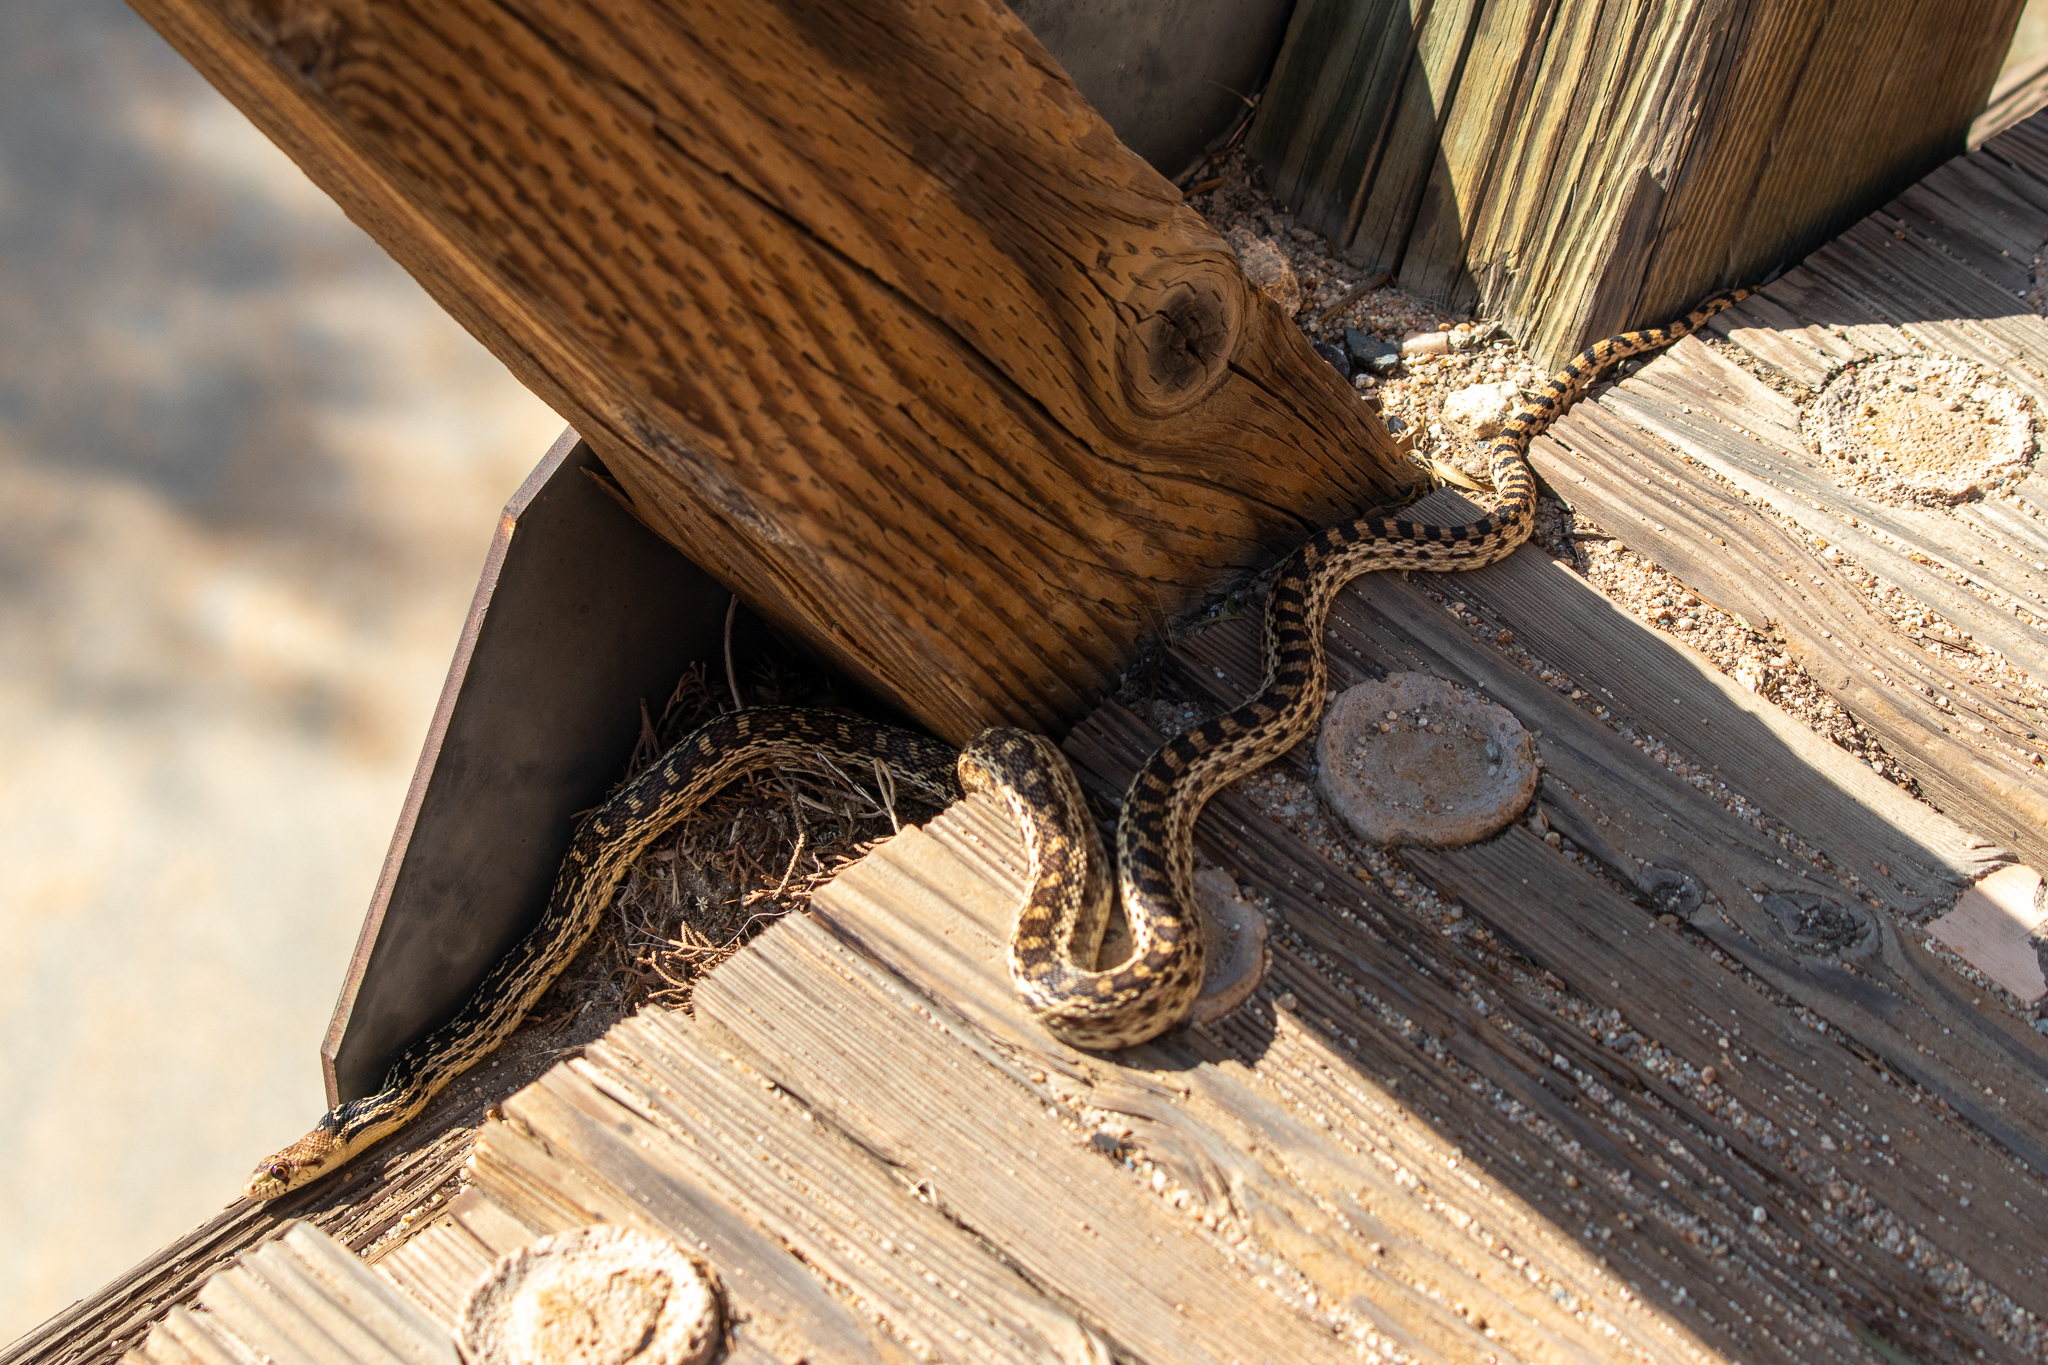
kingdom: Animalia
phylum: Chordata
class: Squamata
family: Colubridae
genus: Pituophis
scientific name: Pituophis catenifer
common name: Gopher snake
